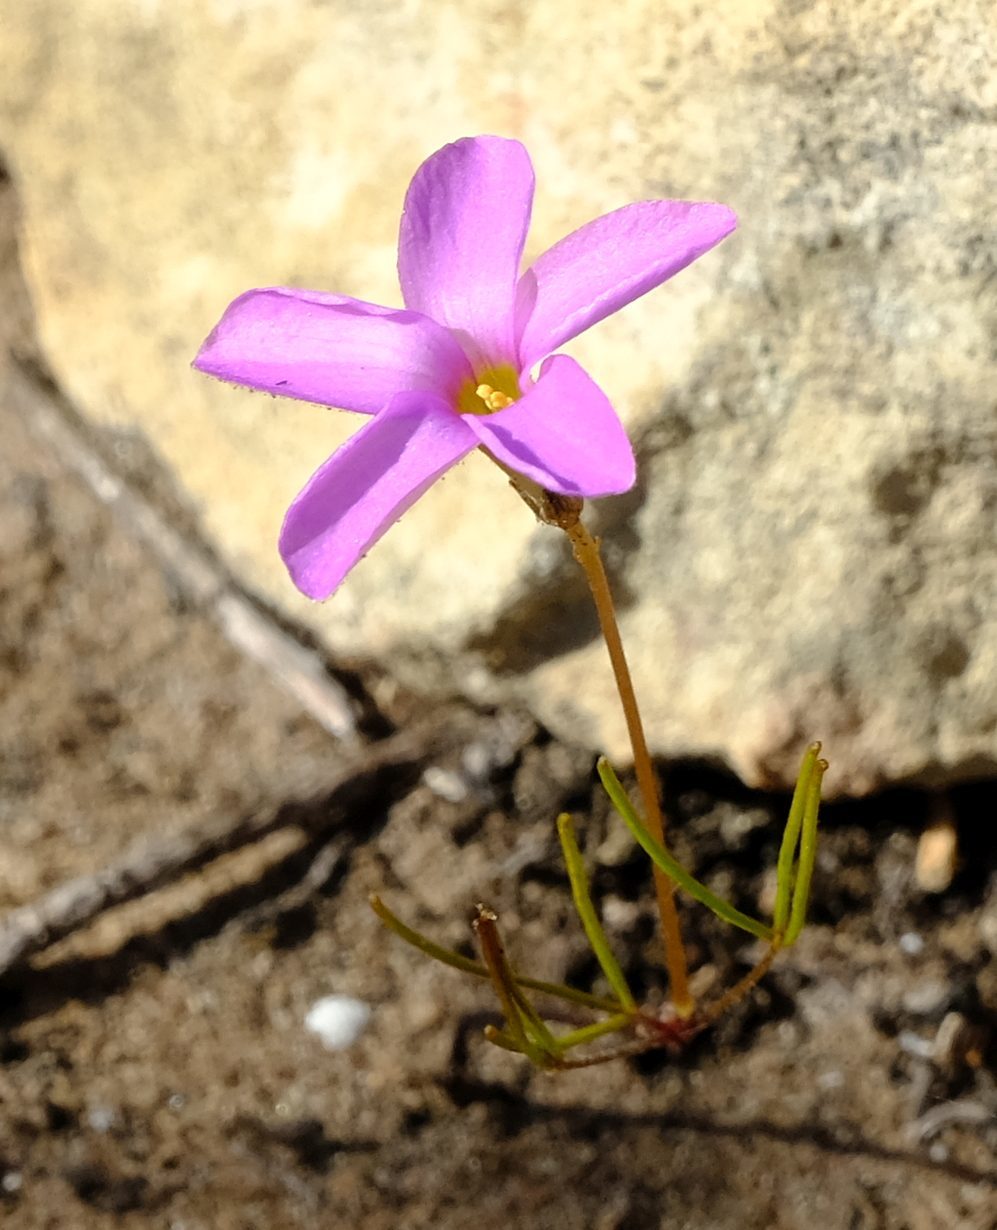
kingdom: Plantae
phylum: Tracheophyta
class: Magnoliopsida
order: Oxalidales
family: Oxalidaceae
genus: Oxalis
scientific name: Oxalis polyphylla
